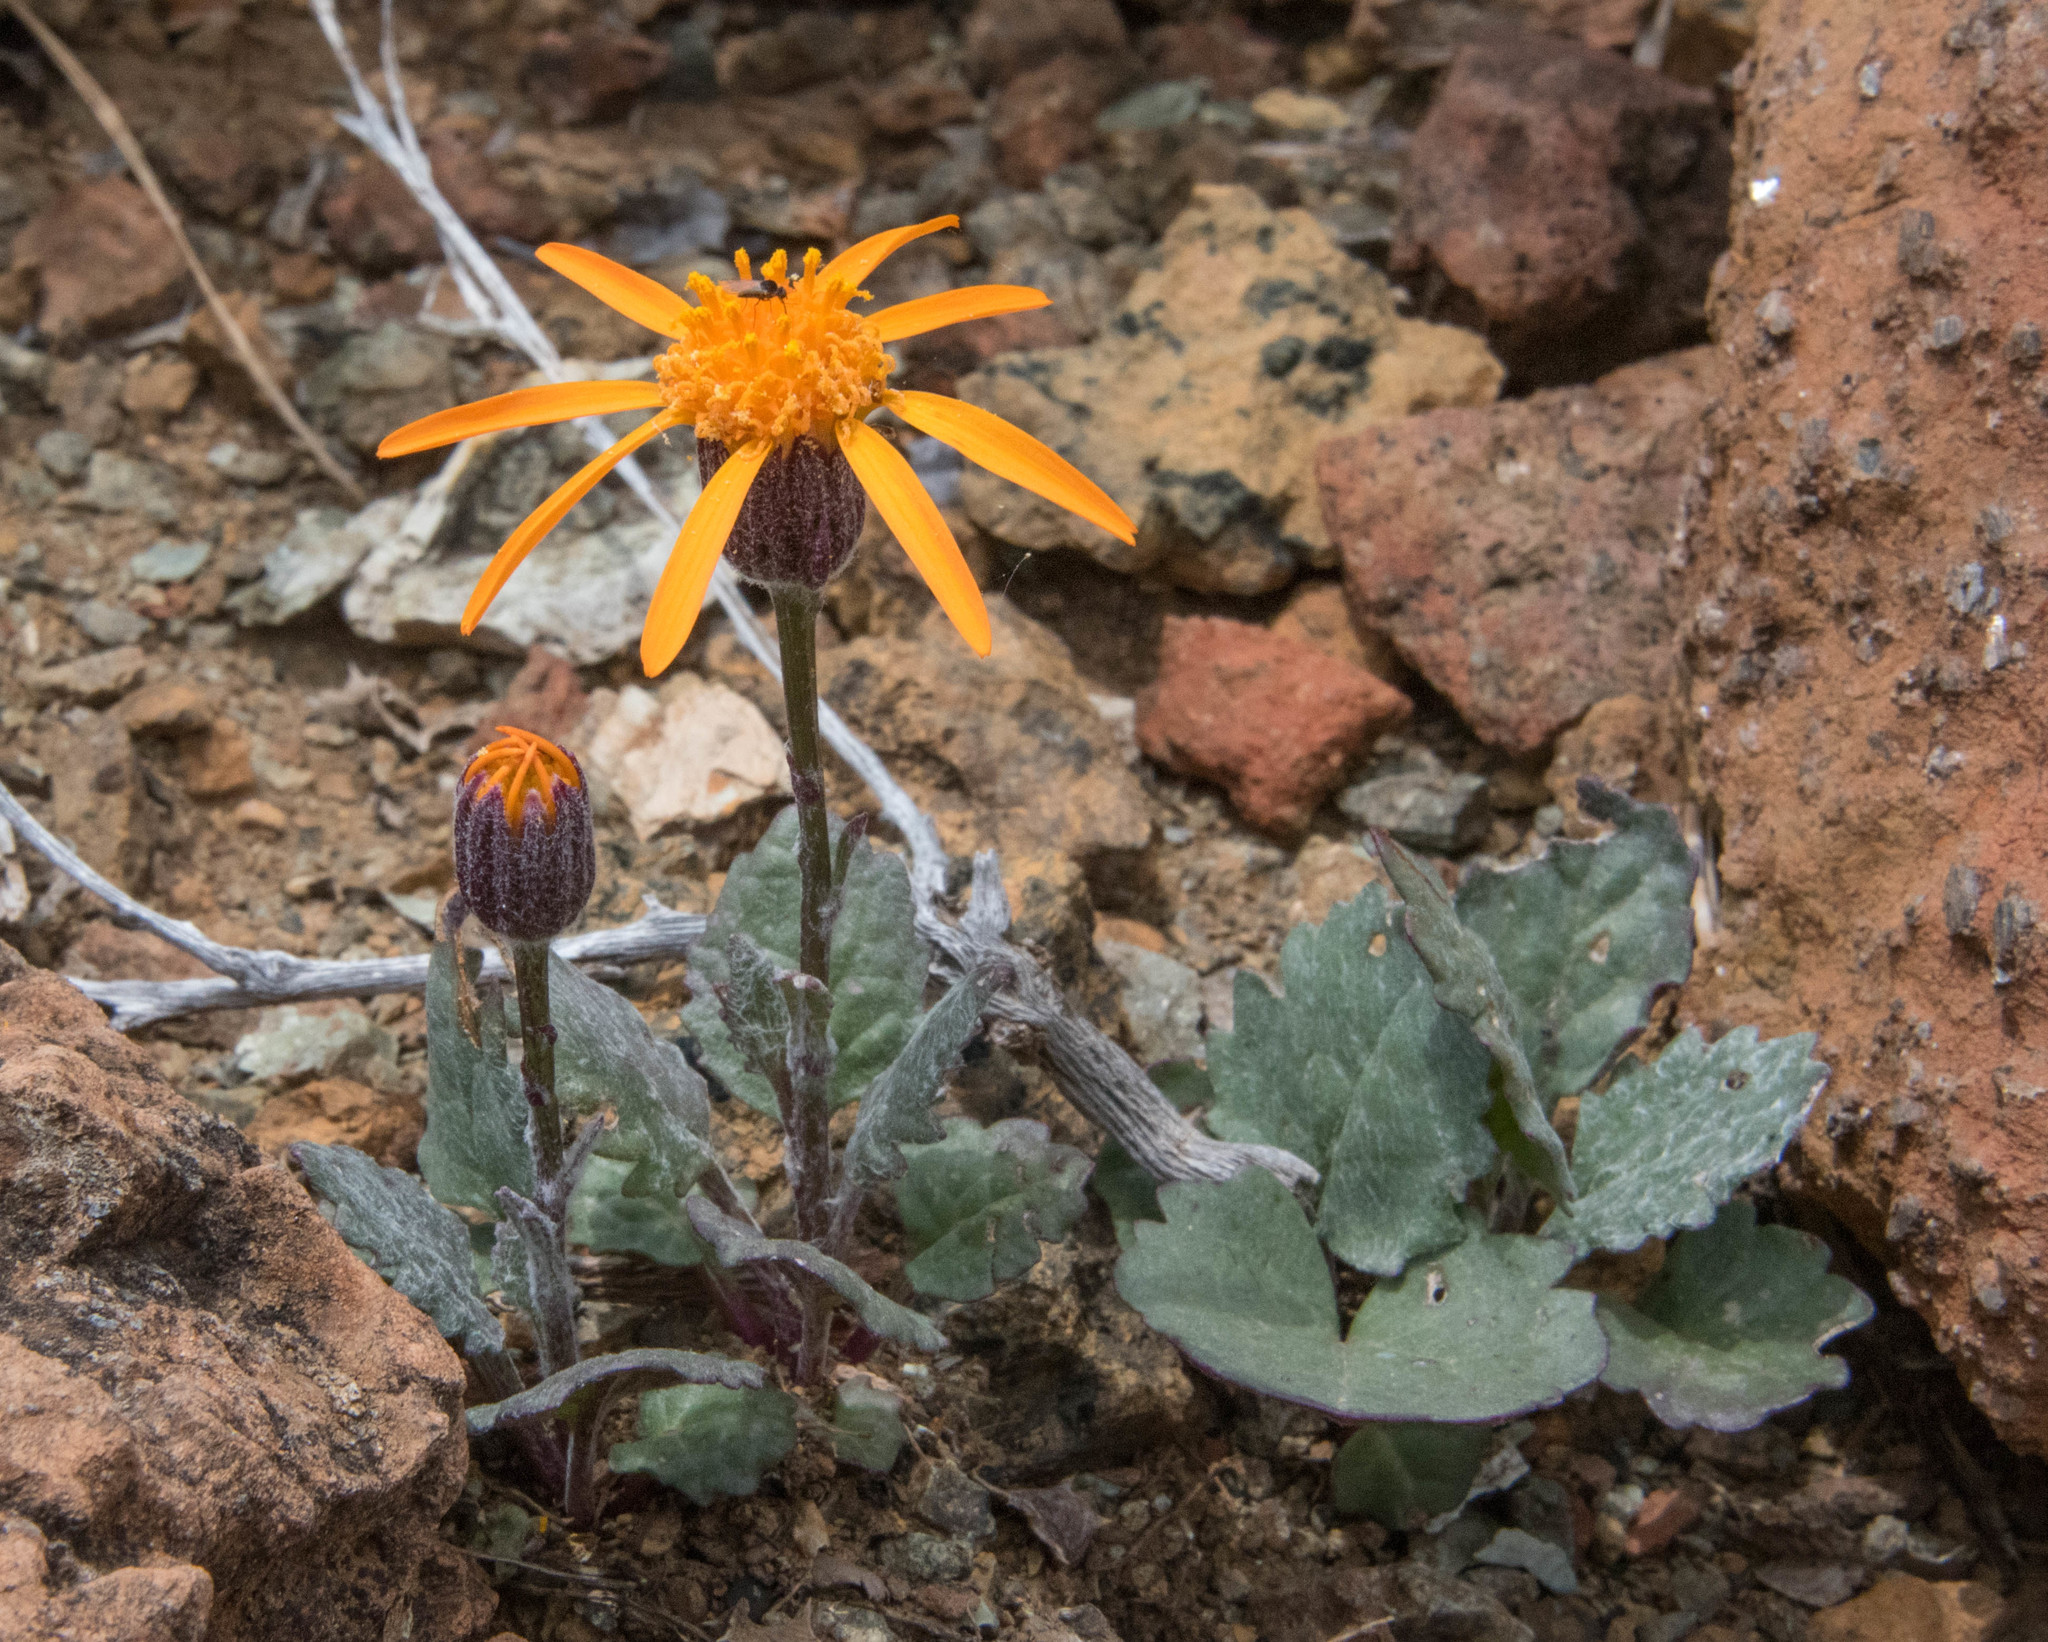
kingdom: Plantae
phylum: Tracheophyta
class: Magnoliopsida
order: Asterales
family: Asteraceae
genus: Packera
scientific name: Packera greenei
